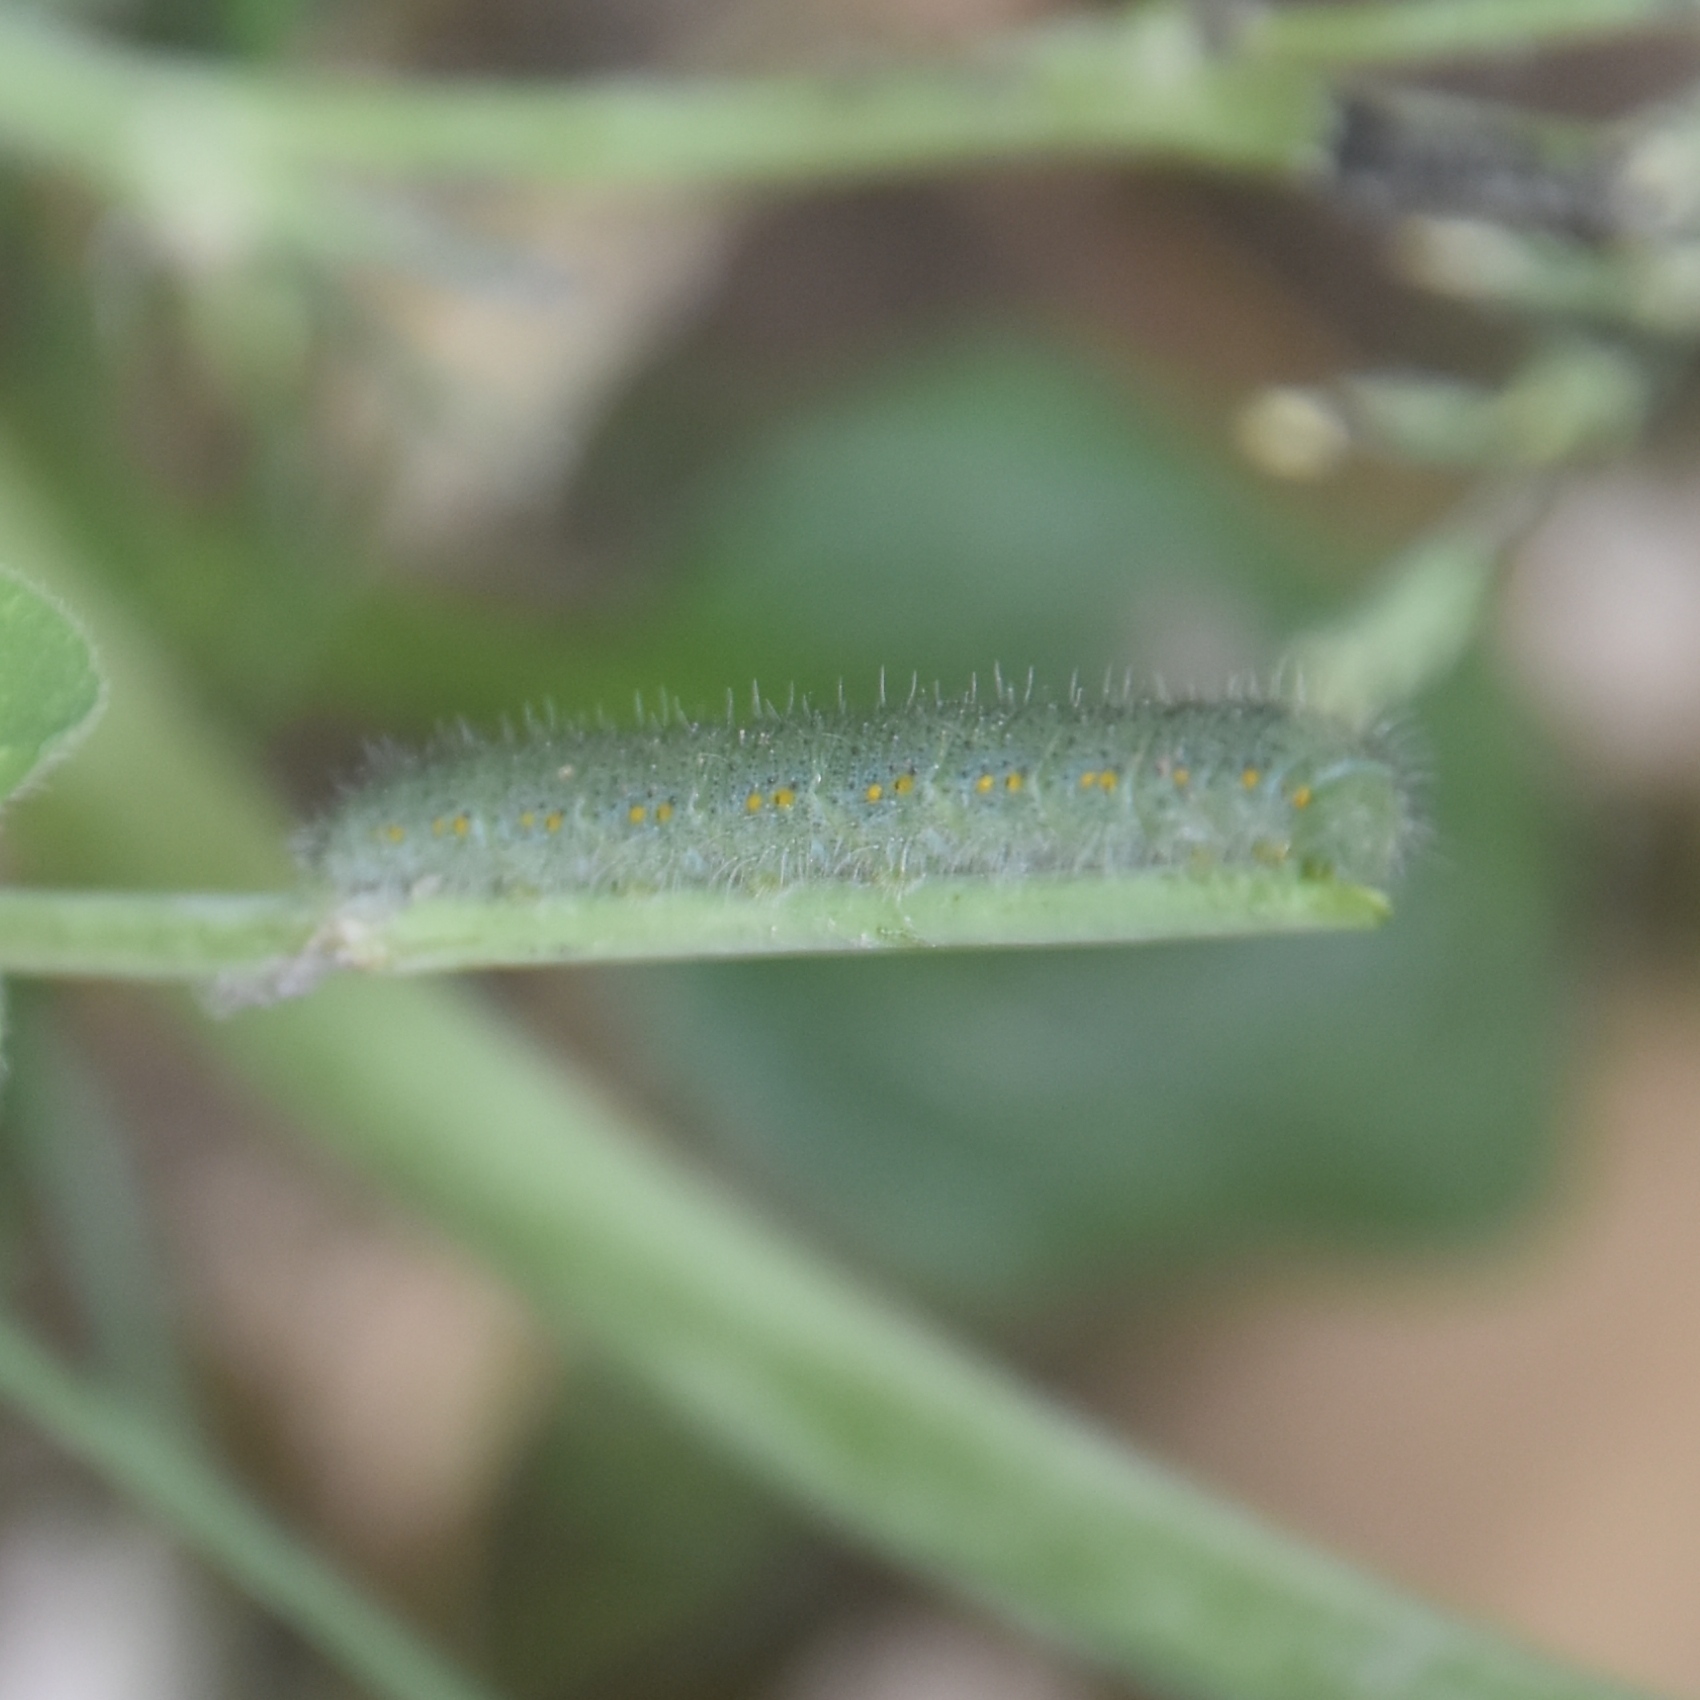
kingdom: Animalia
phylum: Arthropoda
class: Insecta
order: Lepidoptera
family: Pieridae
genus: Pieris
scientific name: Pieris canidia
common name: Indian cabbage white
